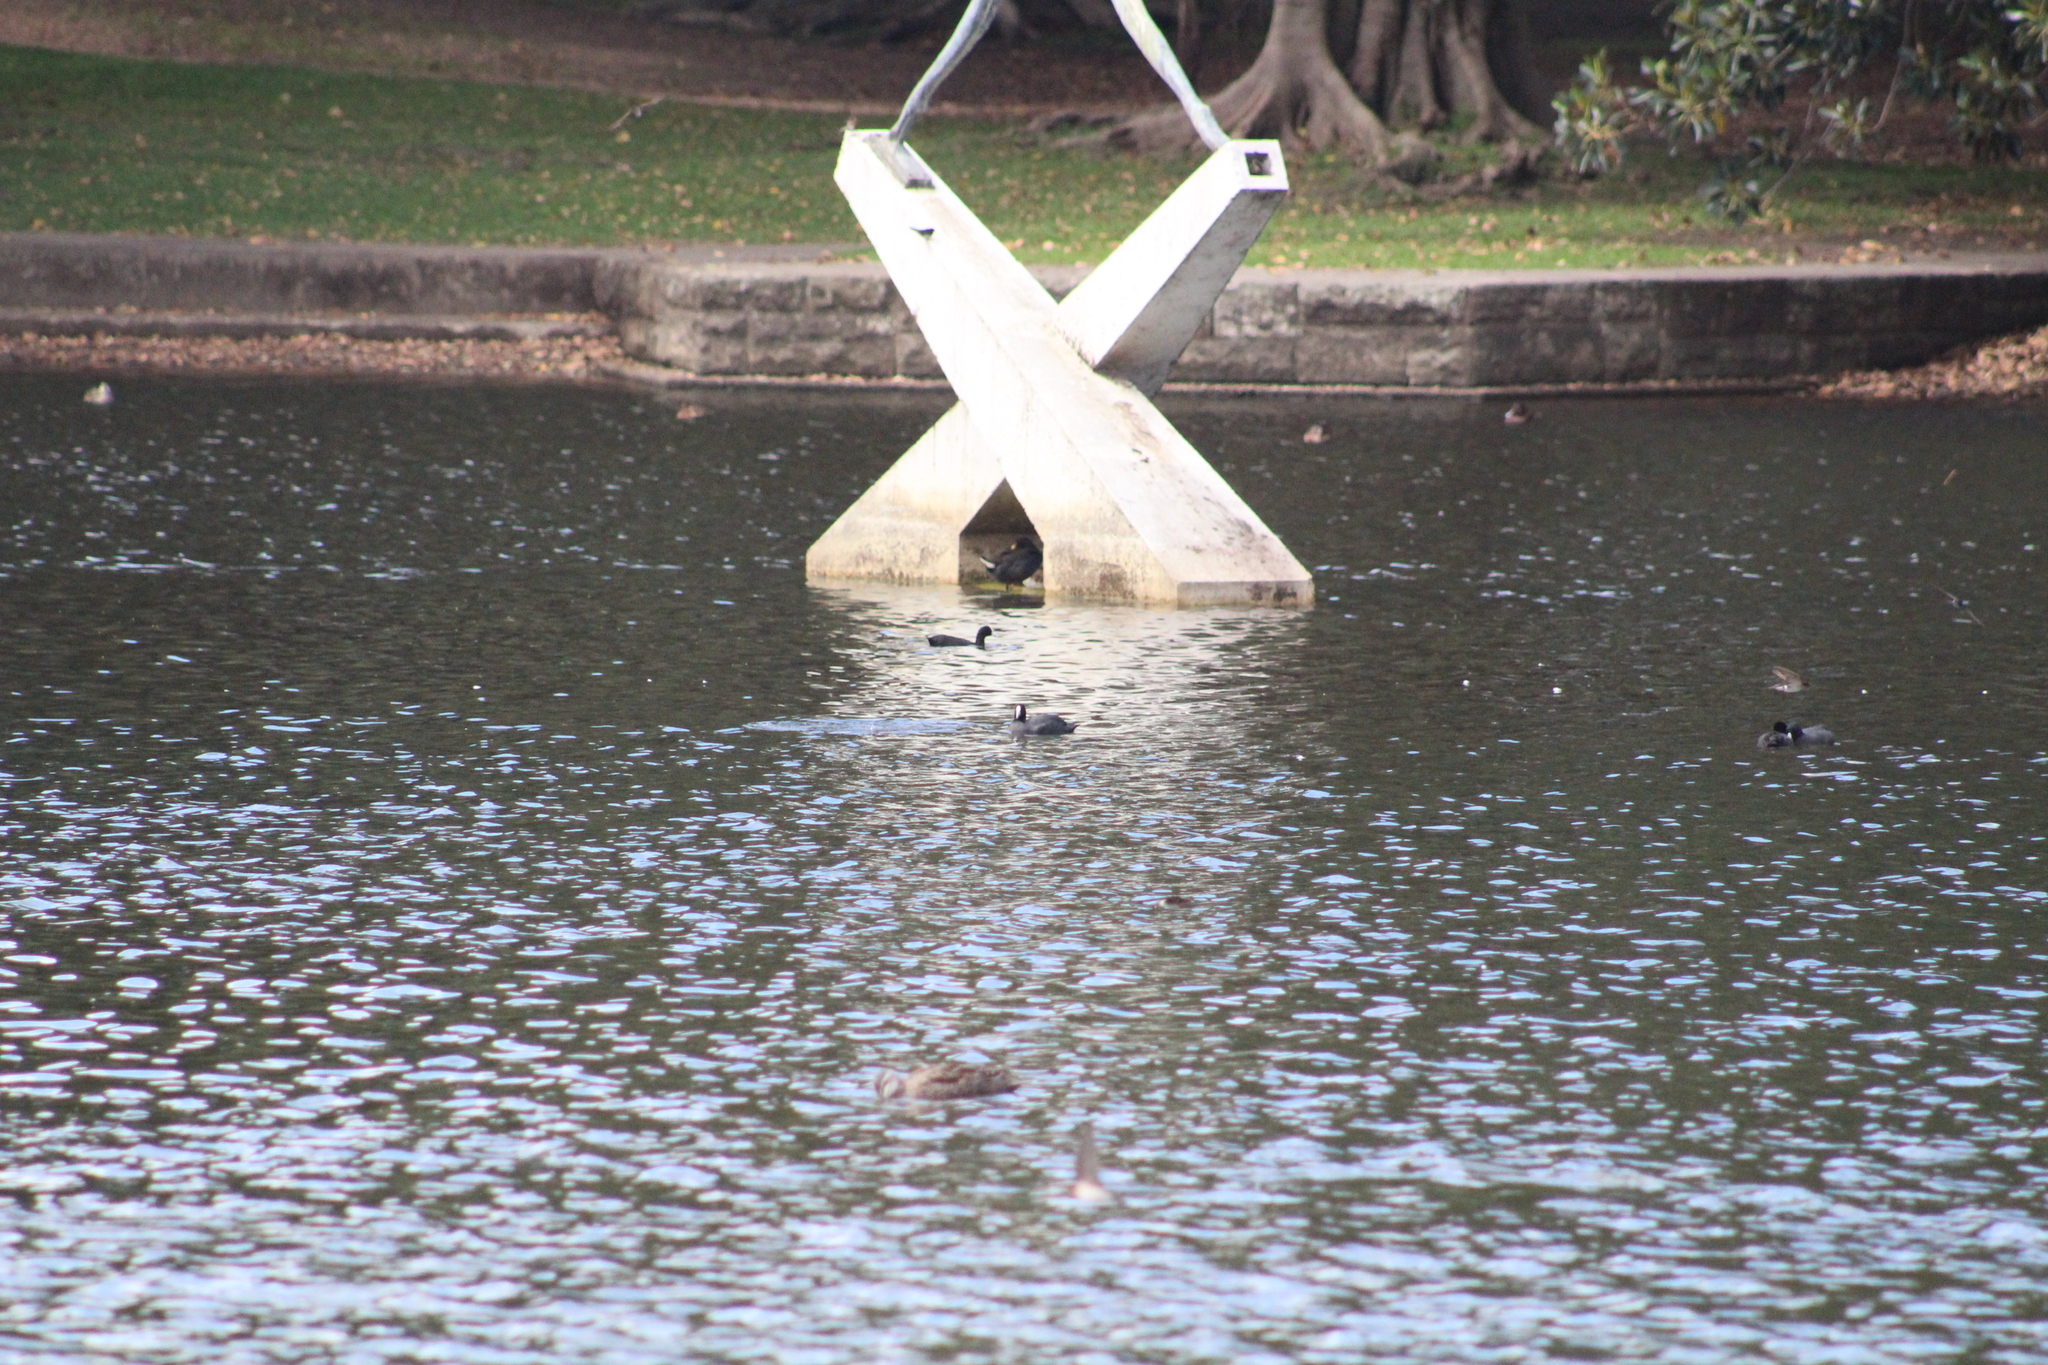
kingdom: Animalia
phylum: Chordata
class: Aves
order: Gruiformes
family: Rallidae
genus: Fulica
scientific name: Fulica atra
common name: Eurasian coot
